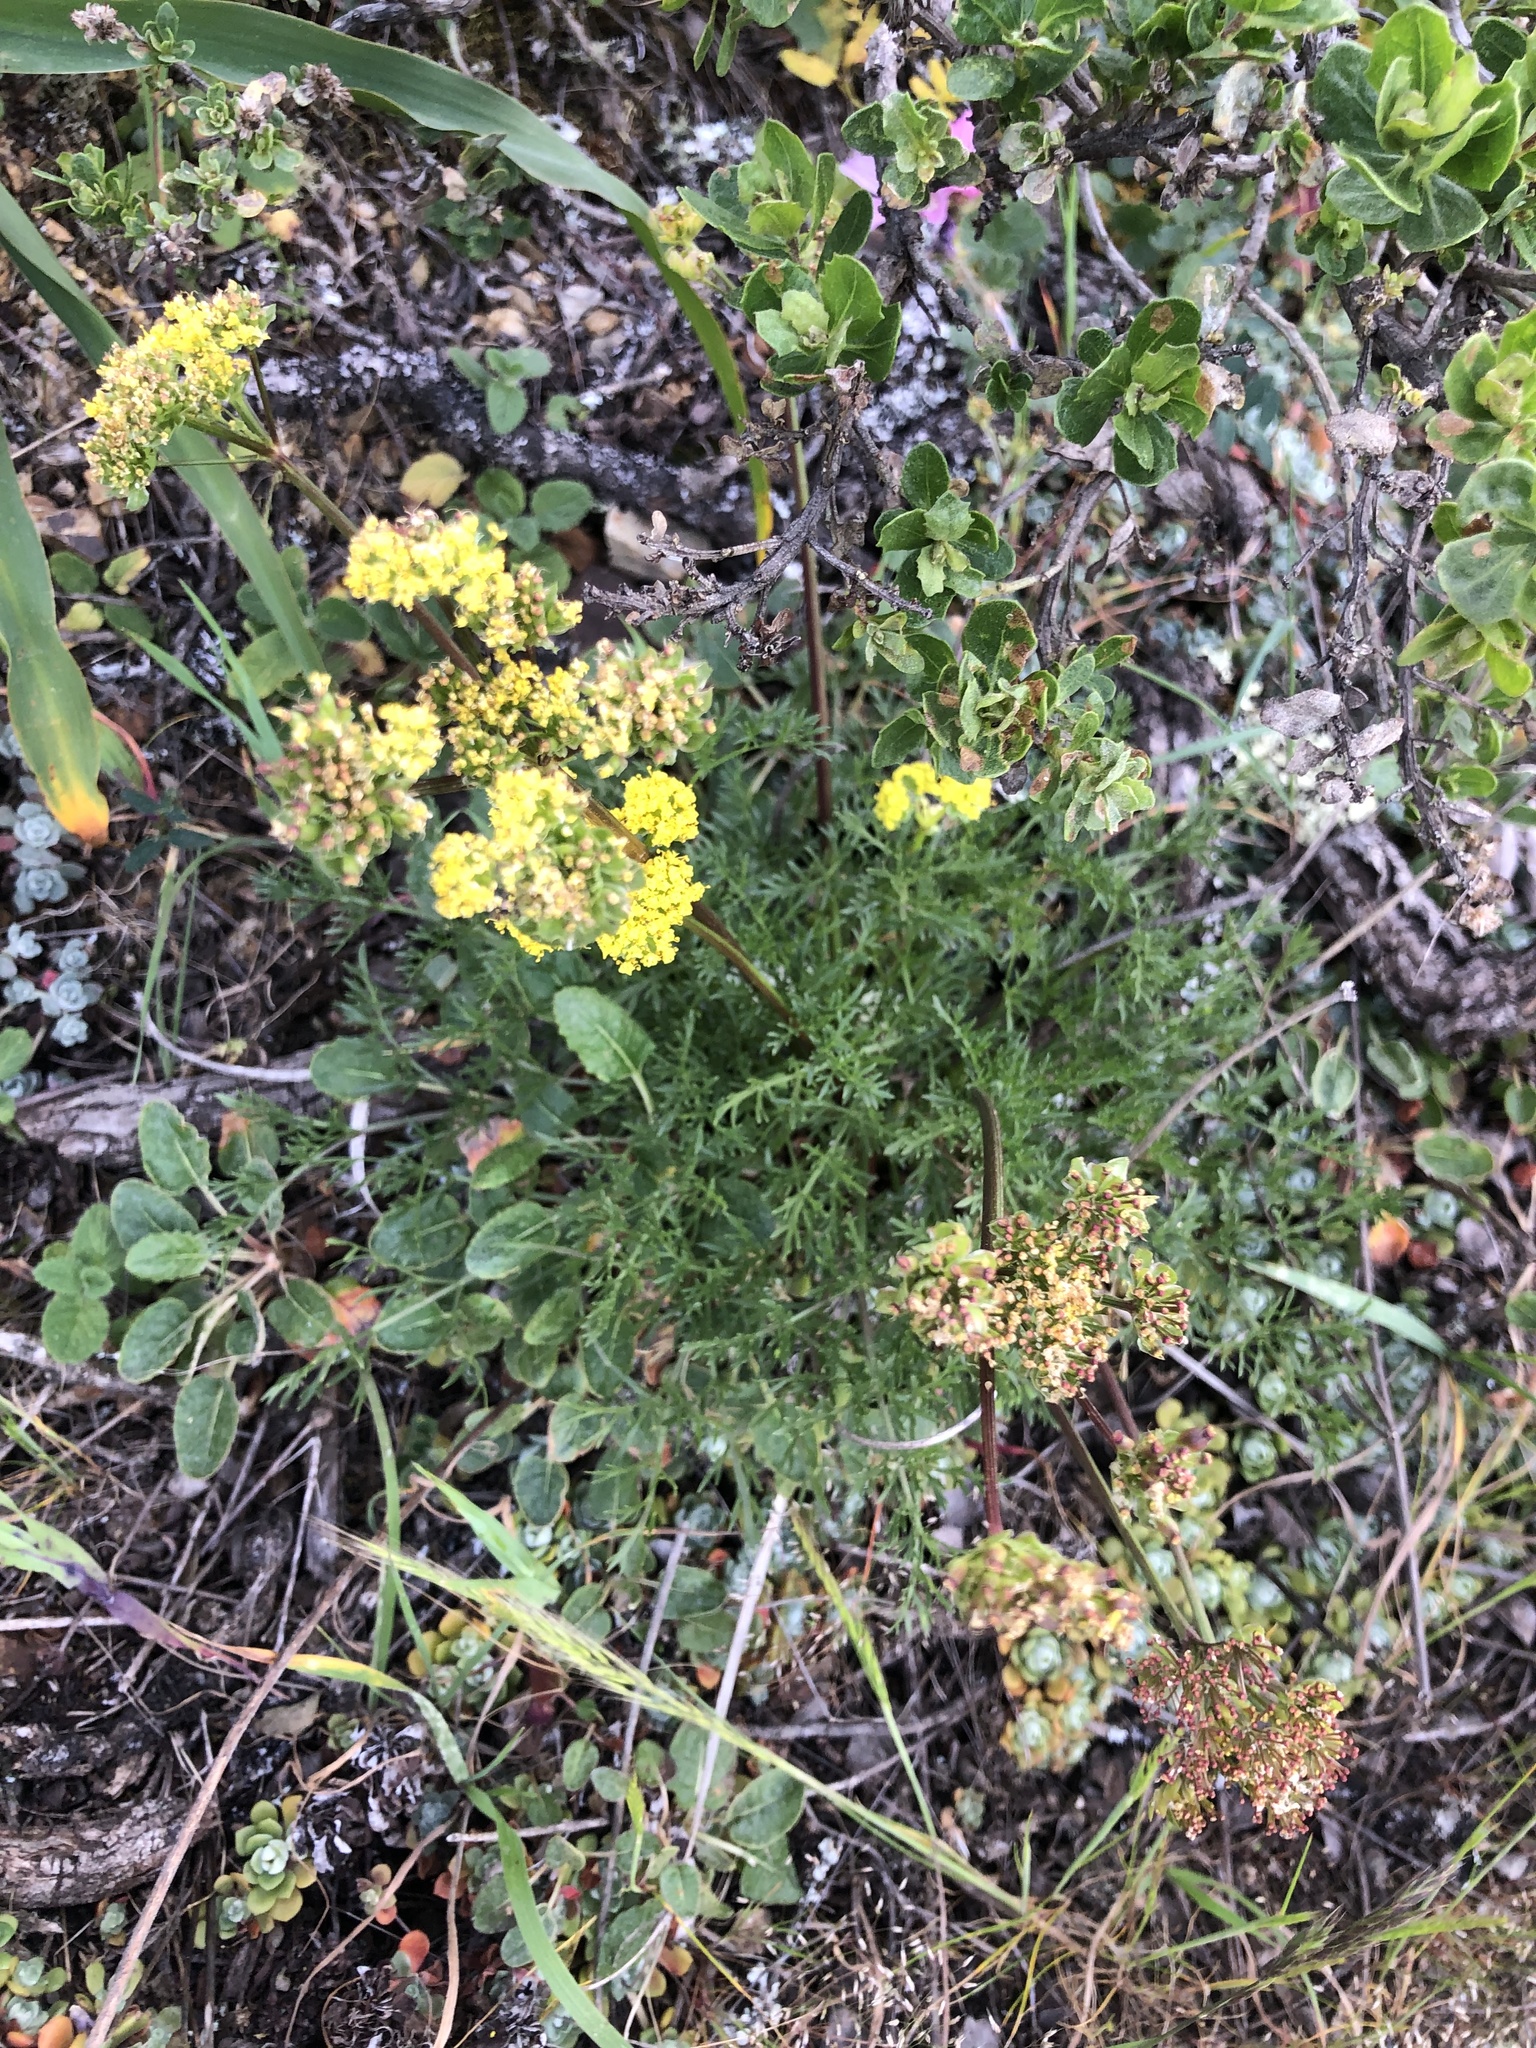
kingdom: Plantae
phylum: Tracheophyta
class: Magnoliopsida
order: Apiales
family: Apiaceae
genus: Lomatium
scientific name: Lomatium utriculatum
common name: Fine-leaf desert-parsley
